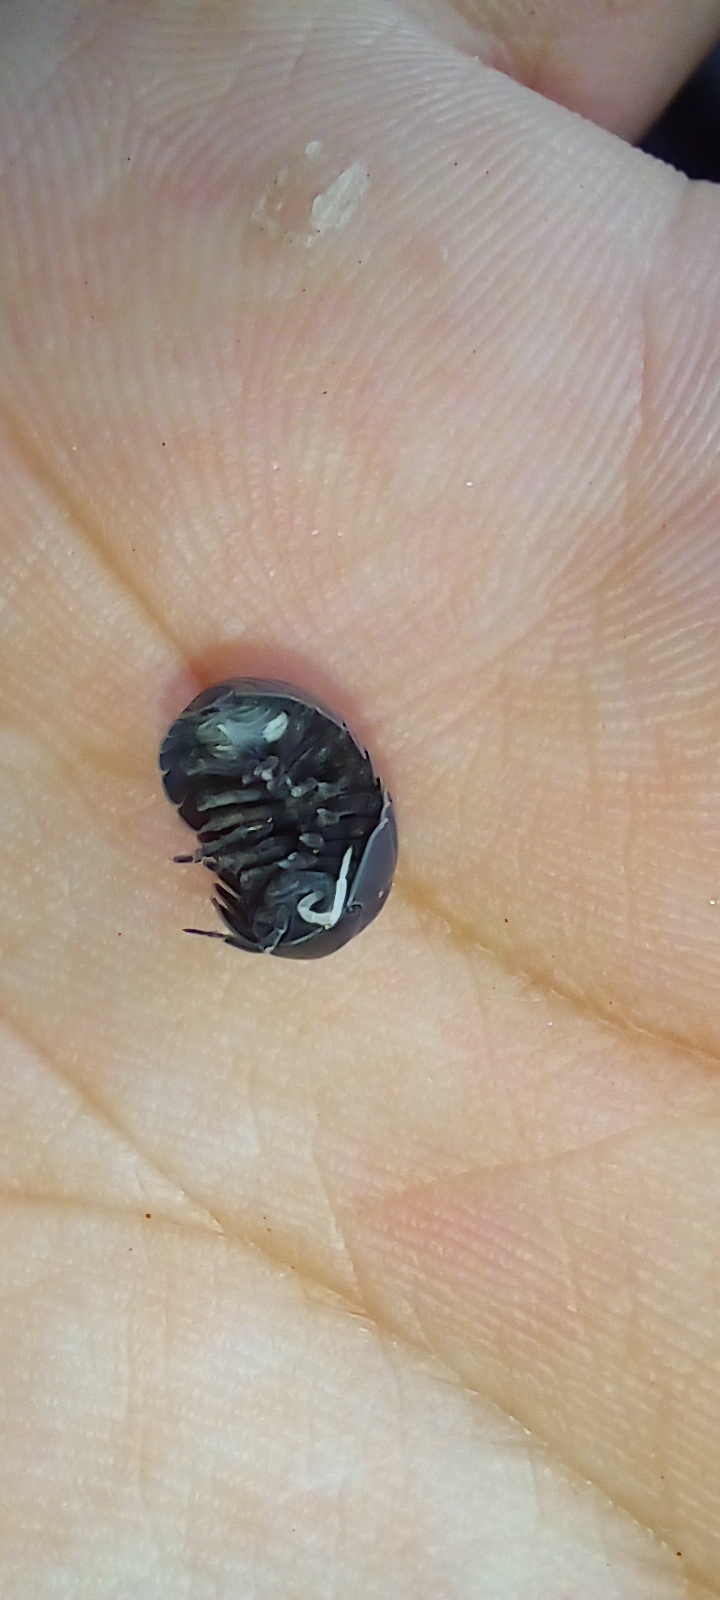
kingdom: Animalia
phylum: Arthropoda
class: Malacostraca
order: Isopoda
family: Armadillidiidae
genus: Armadillidium
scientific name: Armadillidium vulgare
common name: Common pill woodlouse
